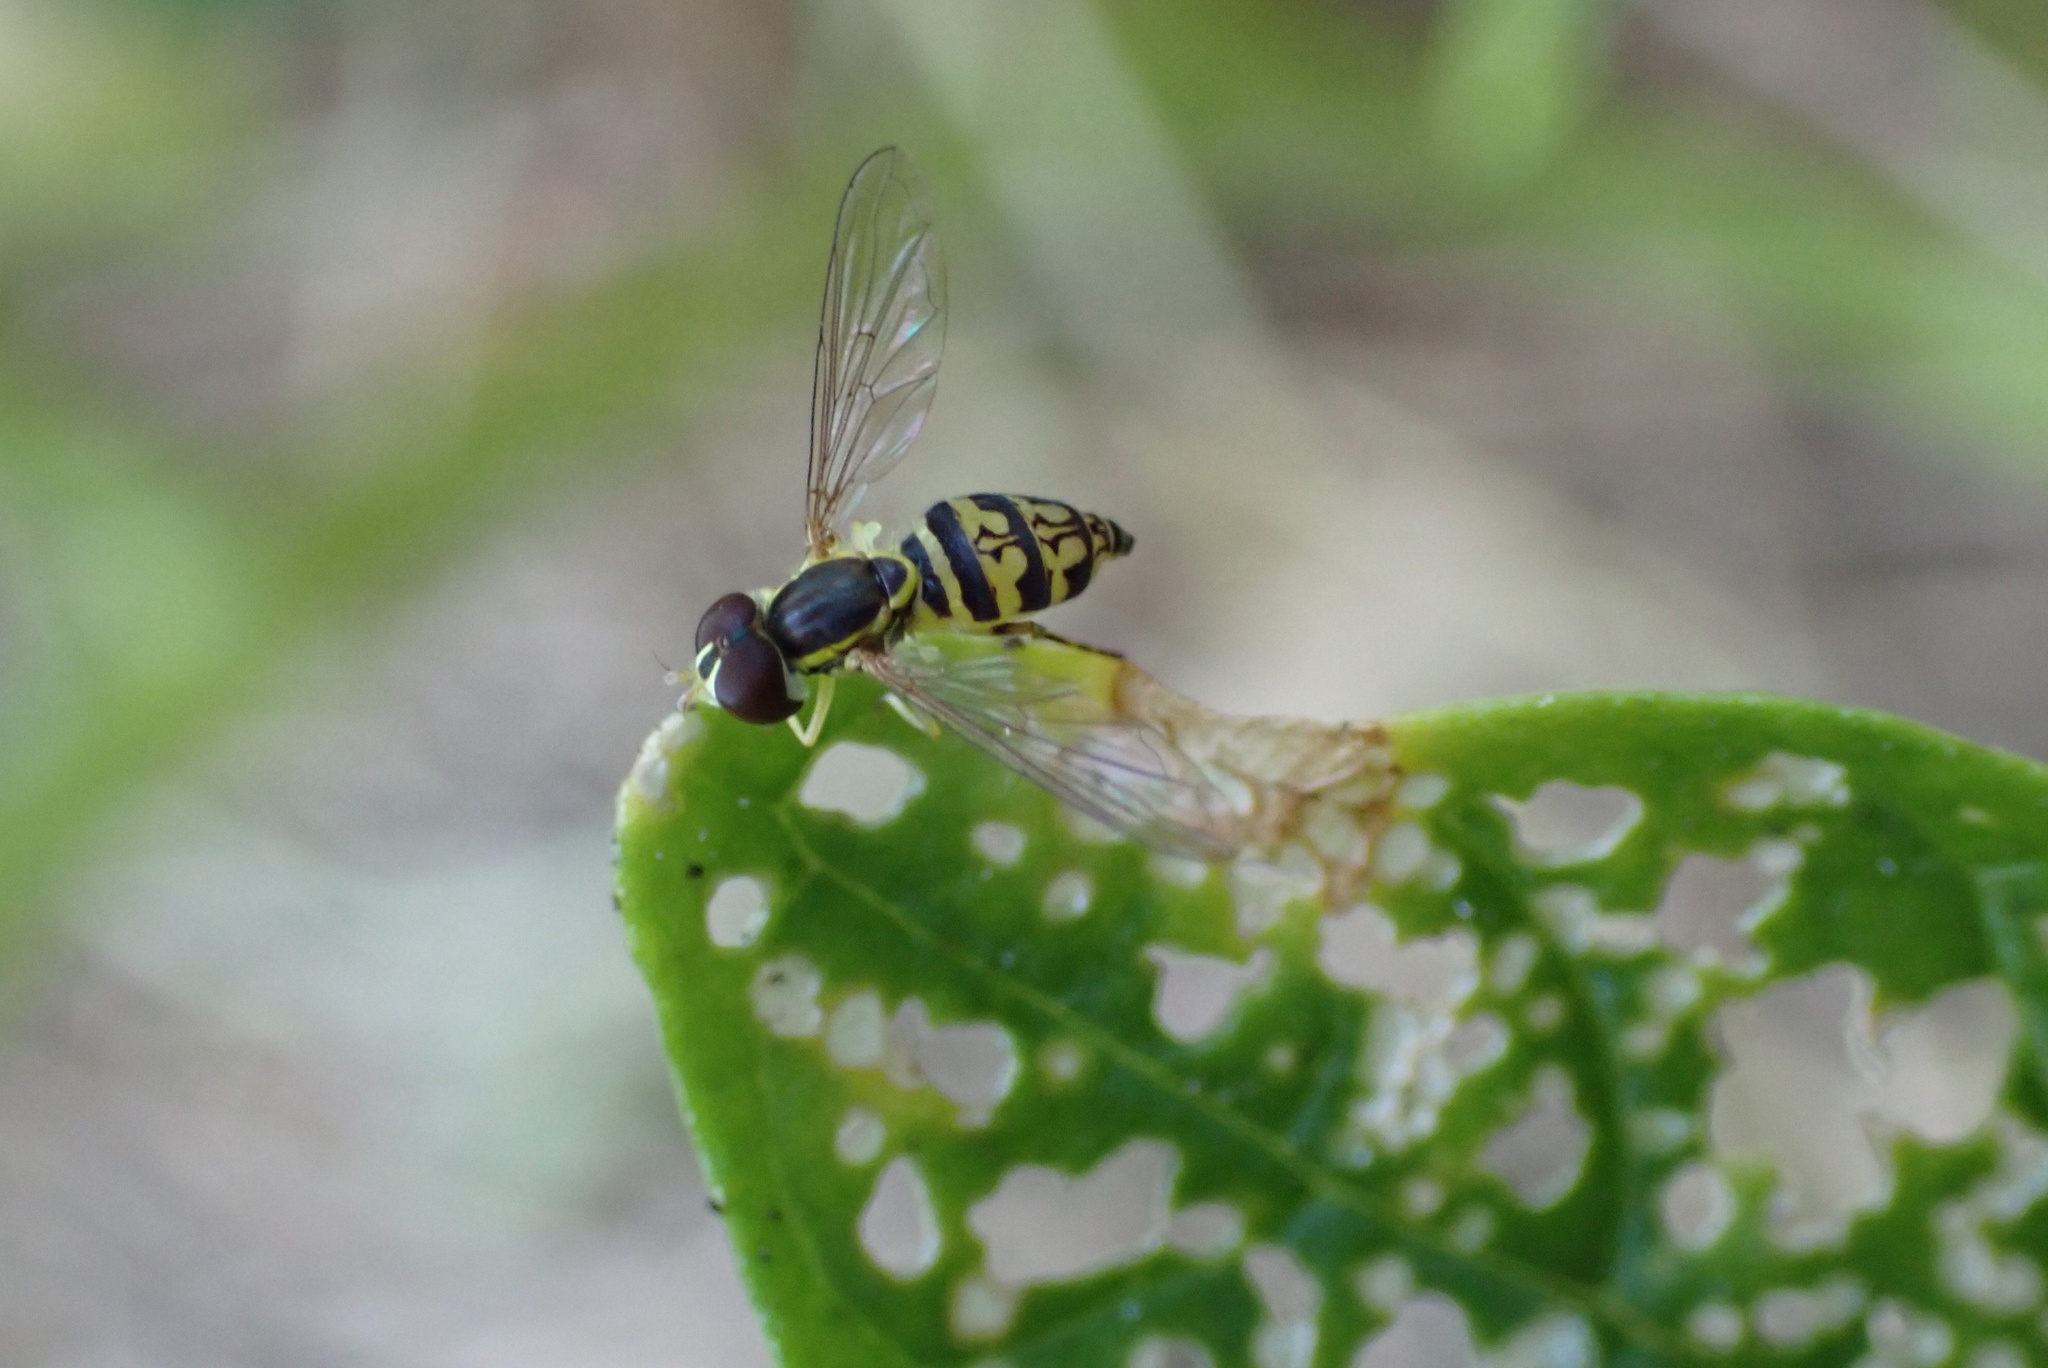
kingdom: Animalia
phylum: Arthropoda
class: Insecta
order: Diptera
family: Syrphidae
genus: Toxomerus
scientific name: Toxomerus geminatus
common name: Eastern calligrapher
